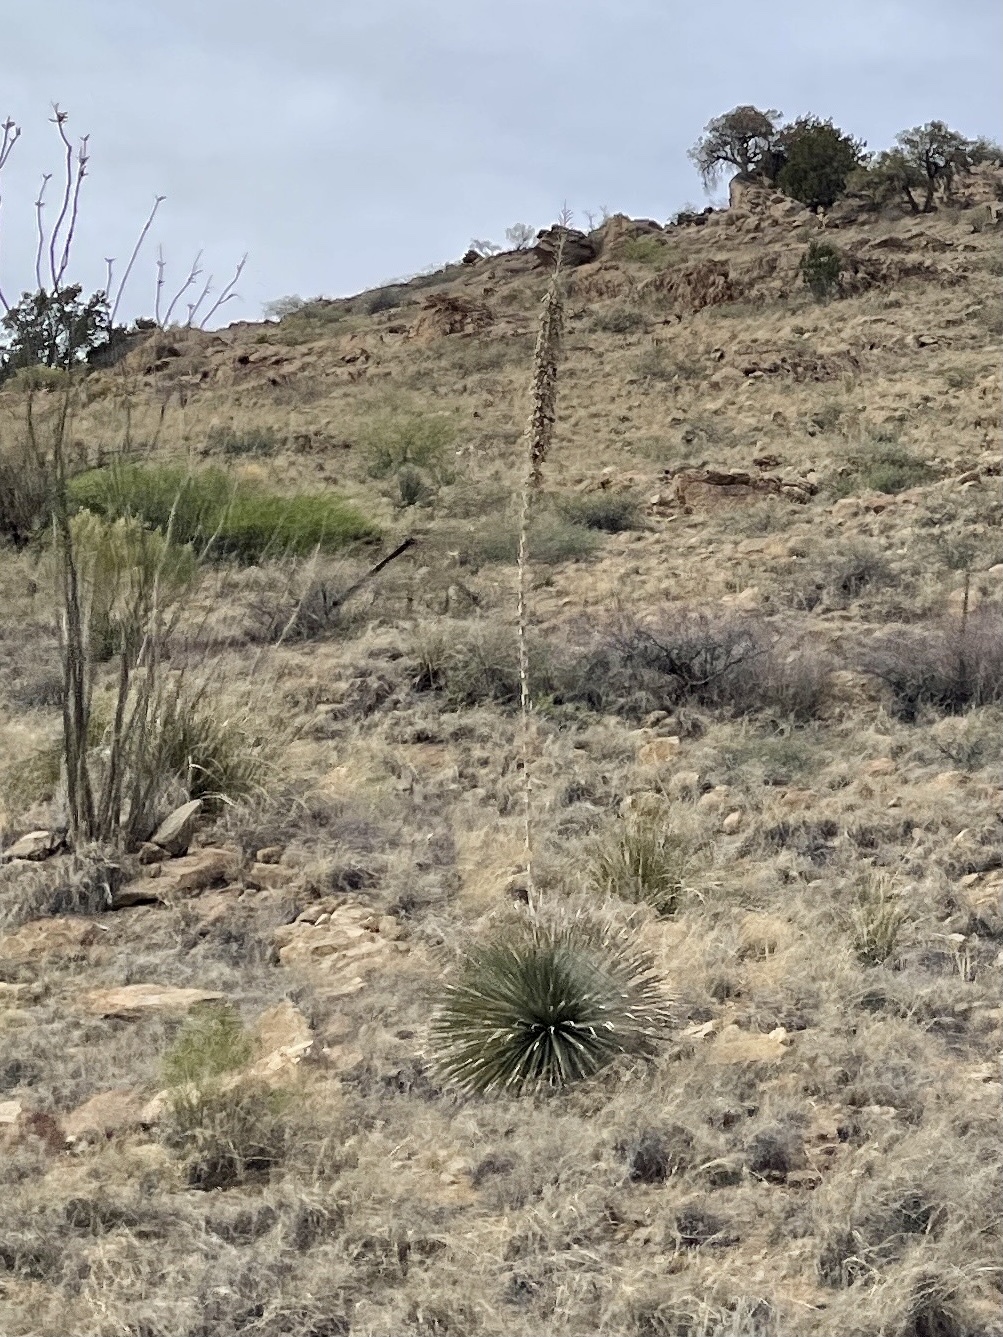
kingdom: Plantae
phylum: Tracheophyta
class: Liliopsida
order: Asparagales
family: Asparagaceae
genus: Dasylirion
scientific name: Dasylirion wheeleri
